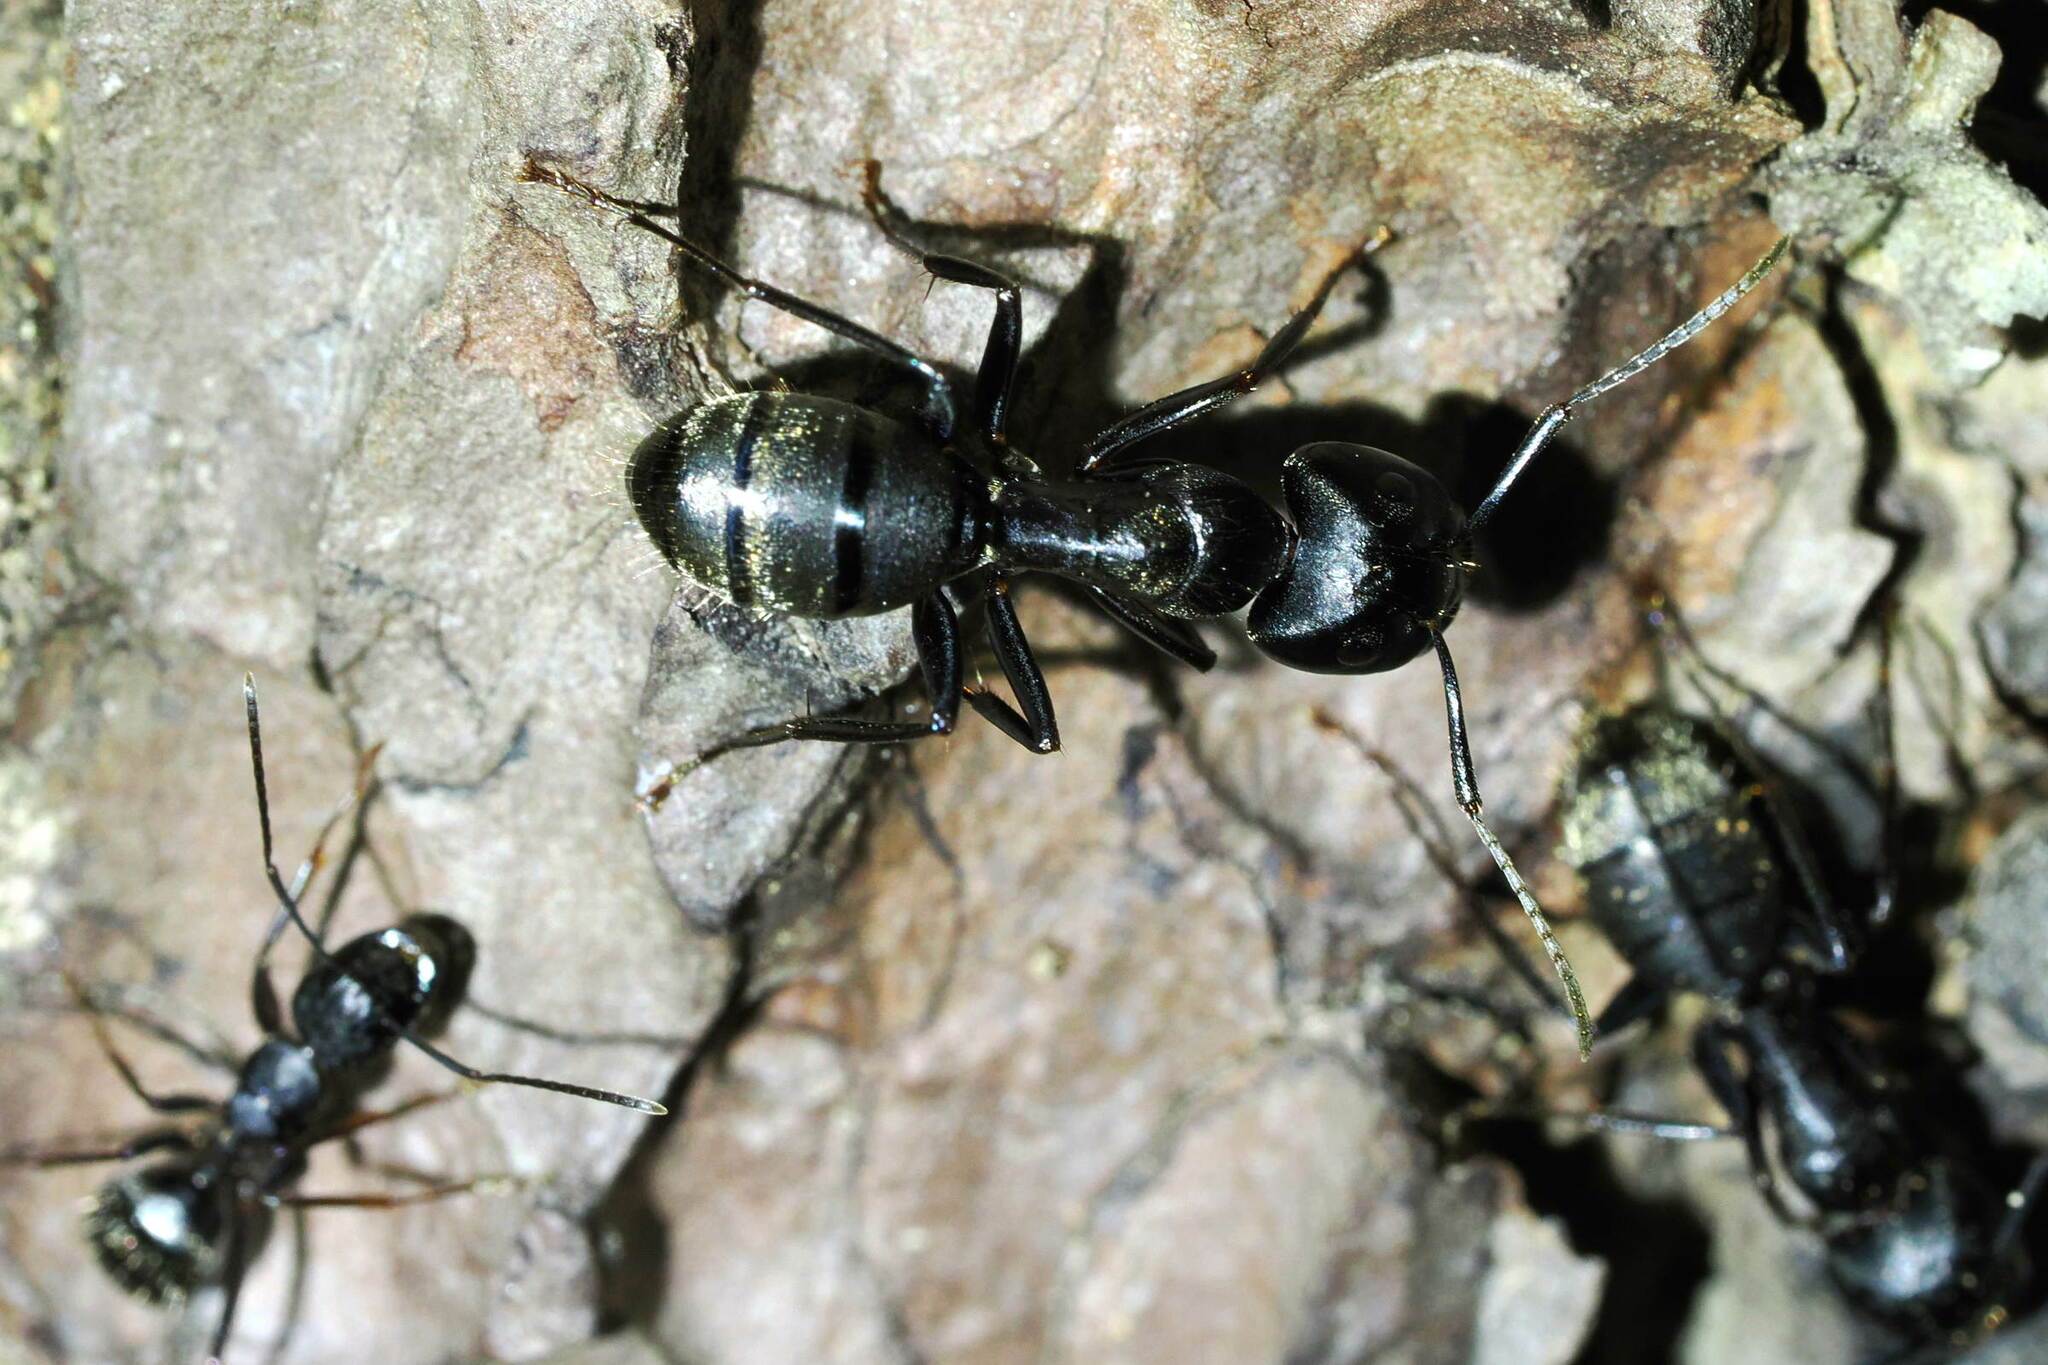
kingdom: Animalia
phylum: Arthropoda
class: Insecta
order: Hymenoptera
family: Formicidae
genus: Camponotus
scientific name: Camponotus pennsylvanicus
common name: Black carpenter ant
